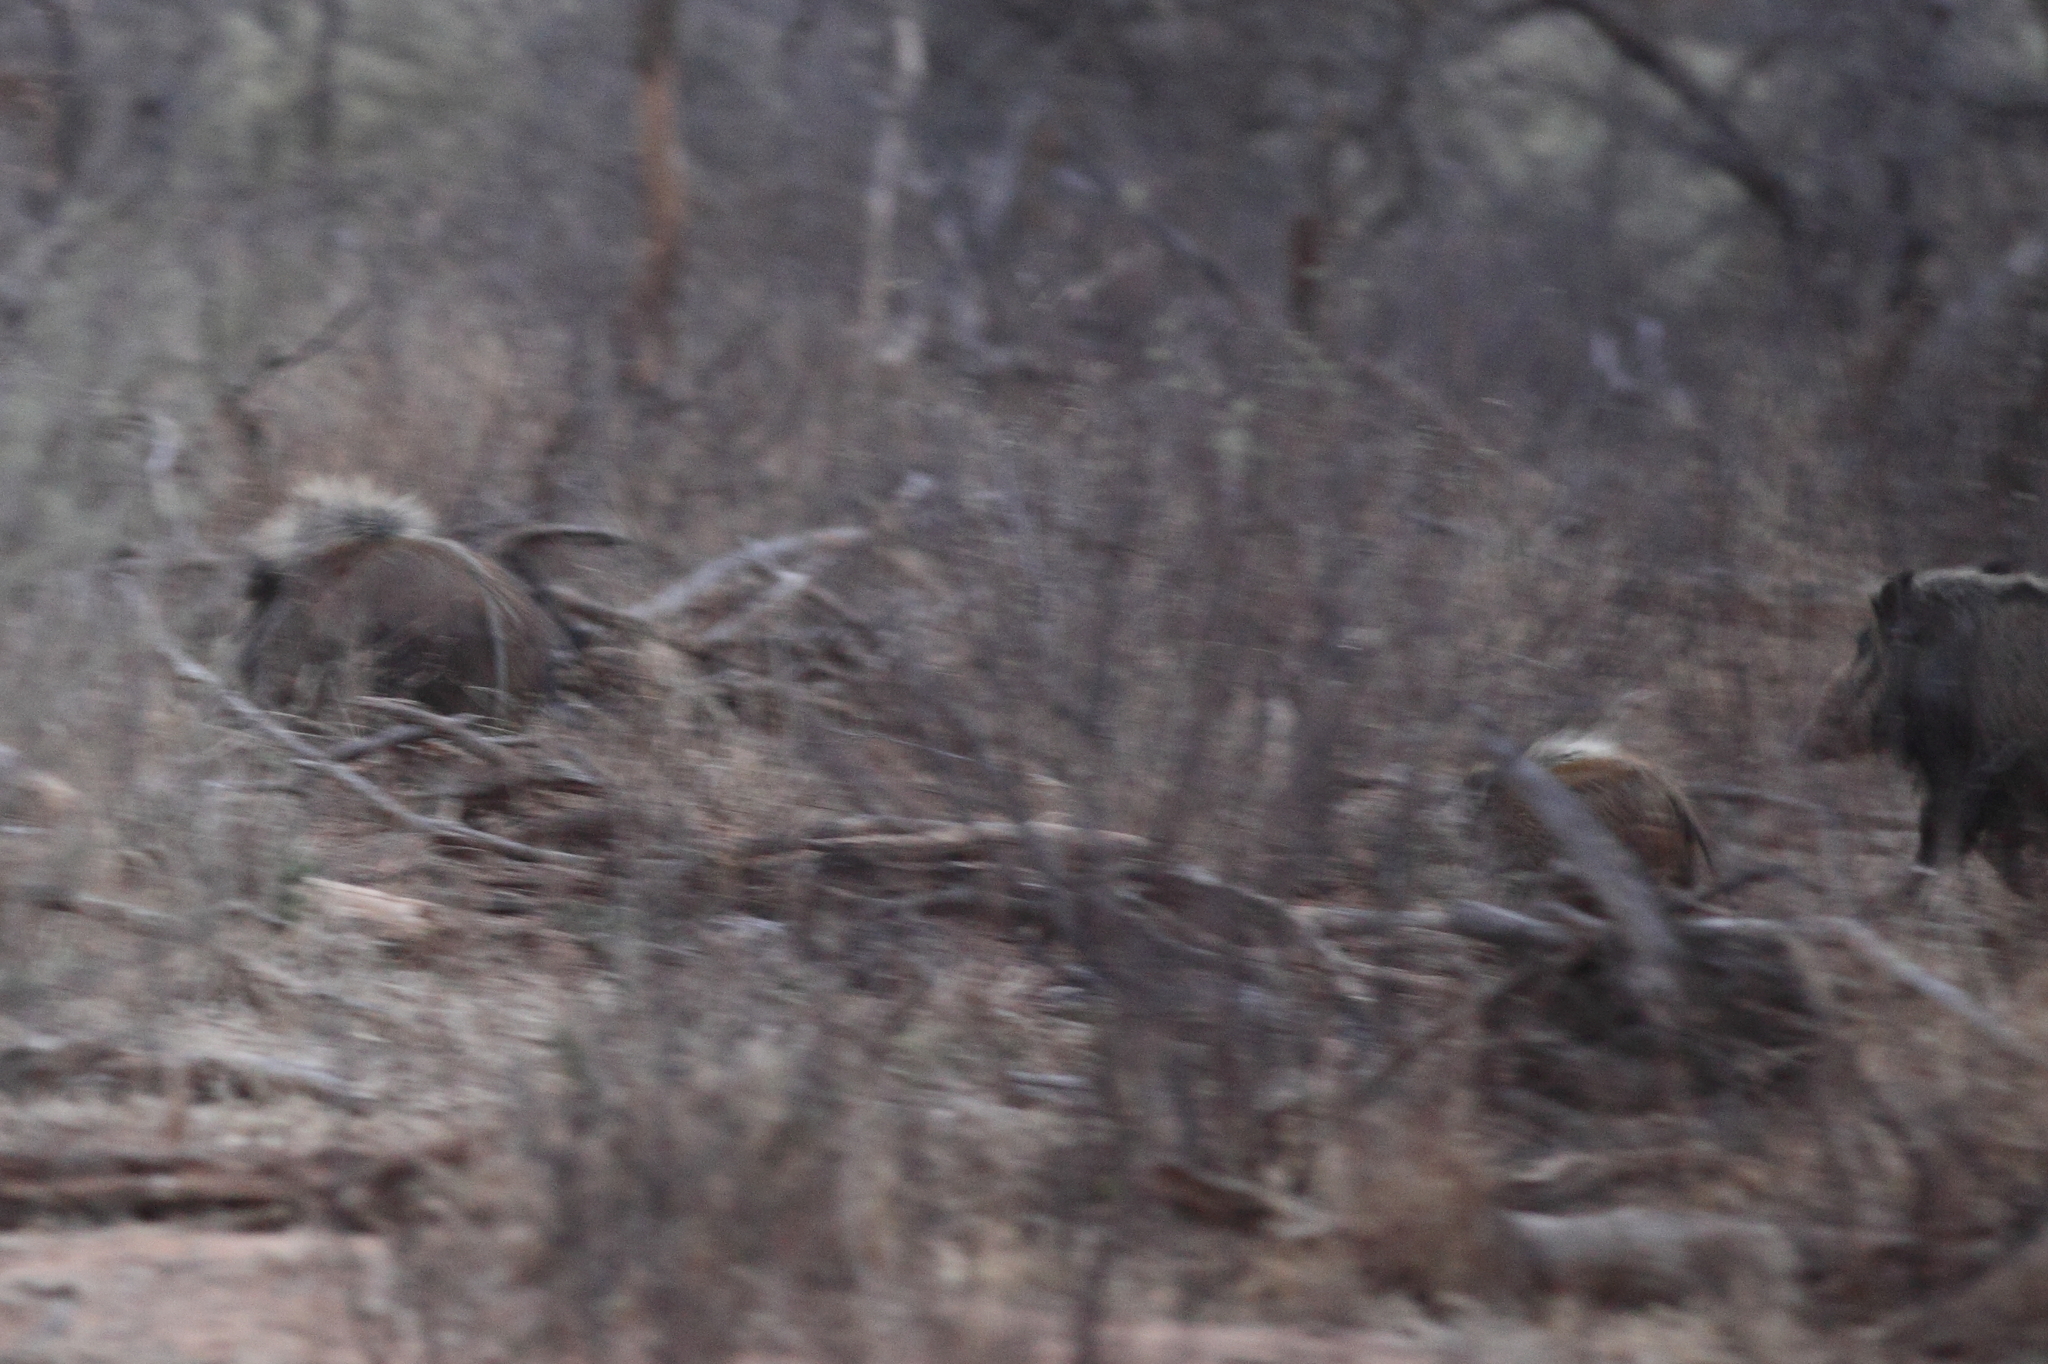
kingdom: Animalia
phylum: Chordata
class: Mammalia
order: Artiodactyla
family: Suidae
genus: Potamochoerus
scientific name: Potamochoerus larvatus
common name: Bushpig
